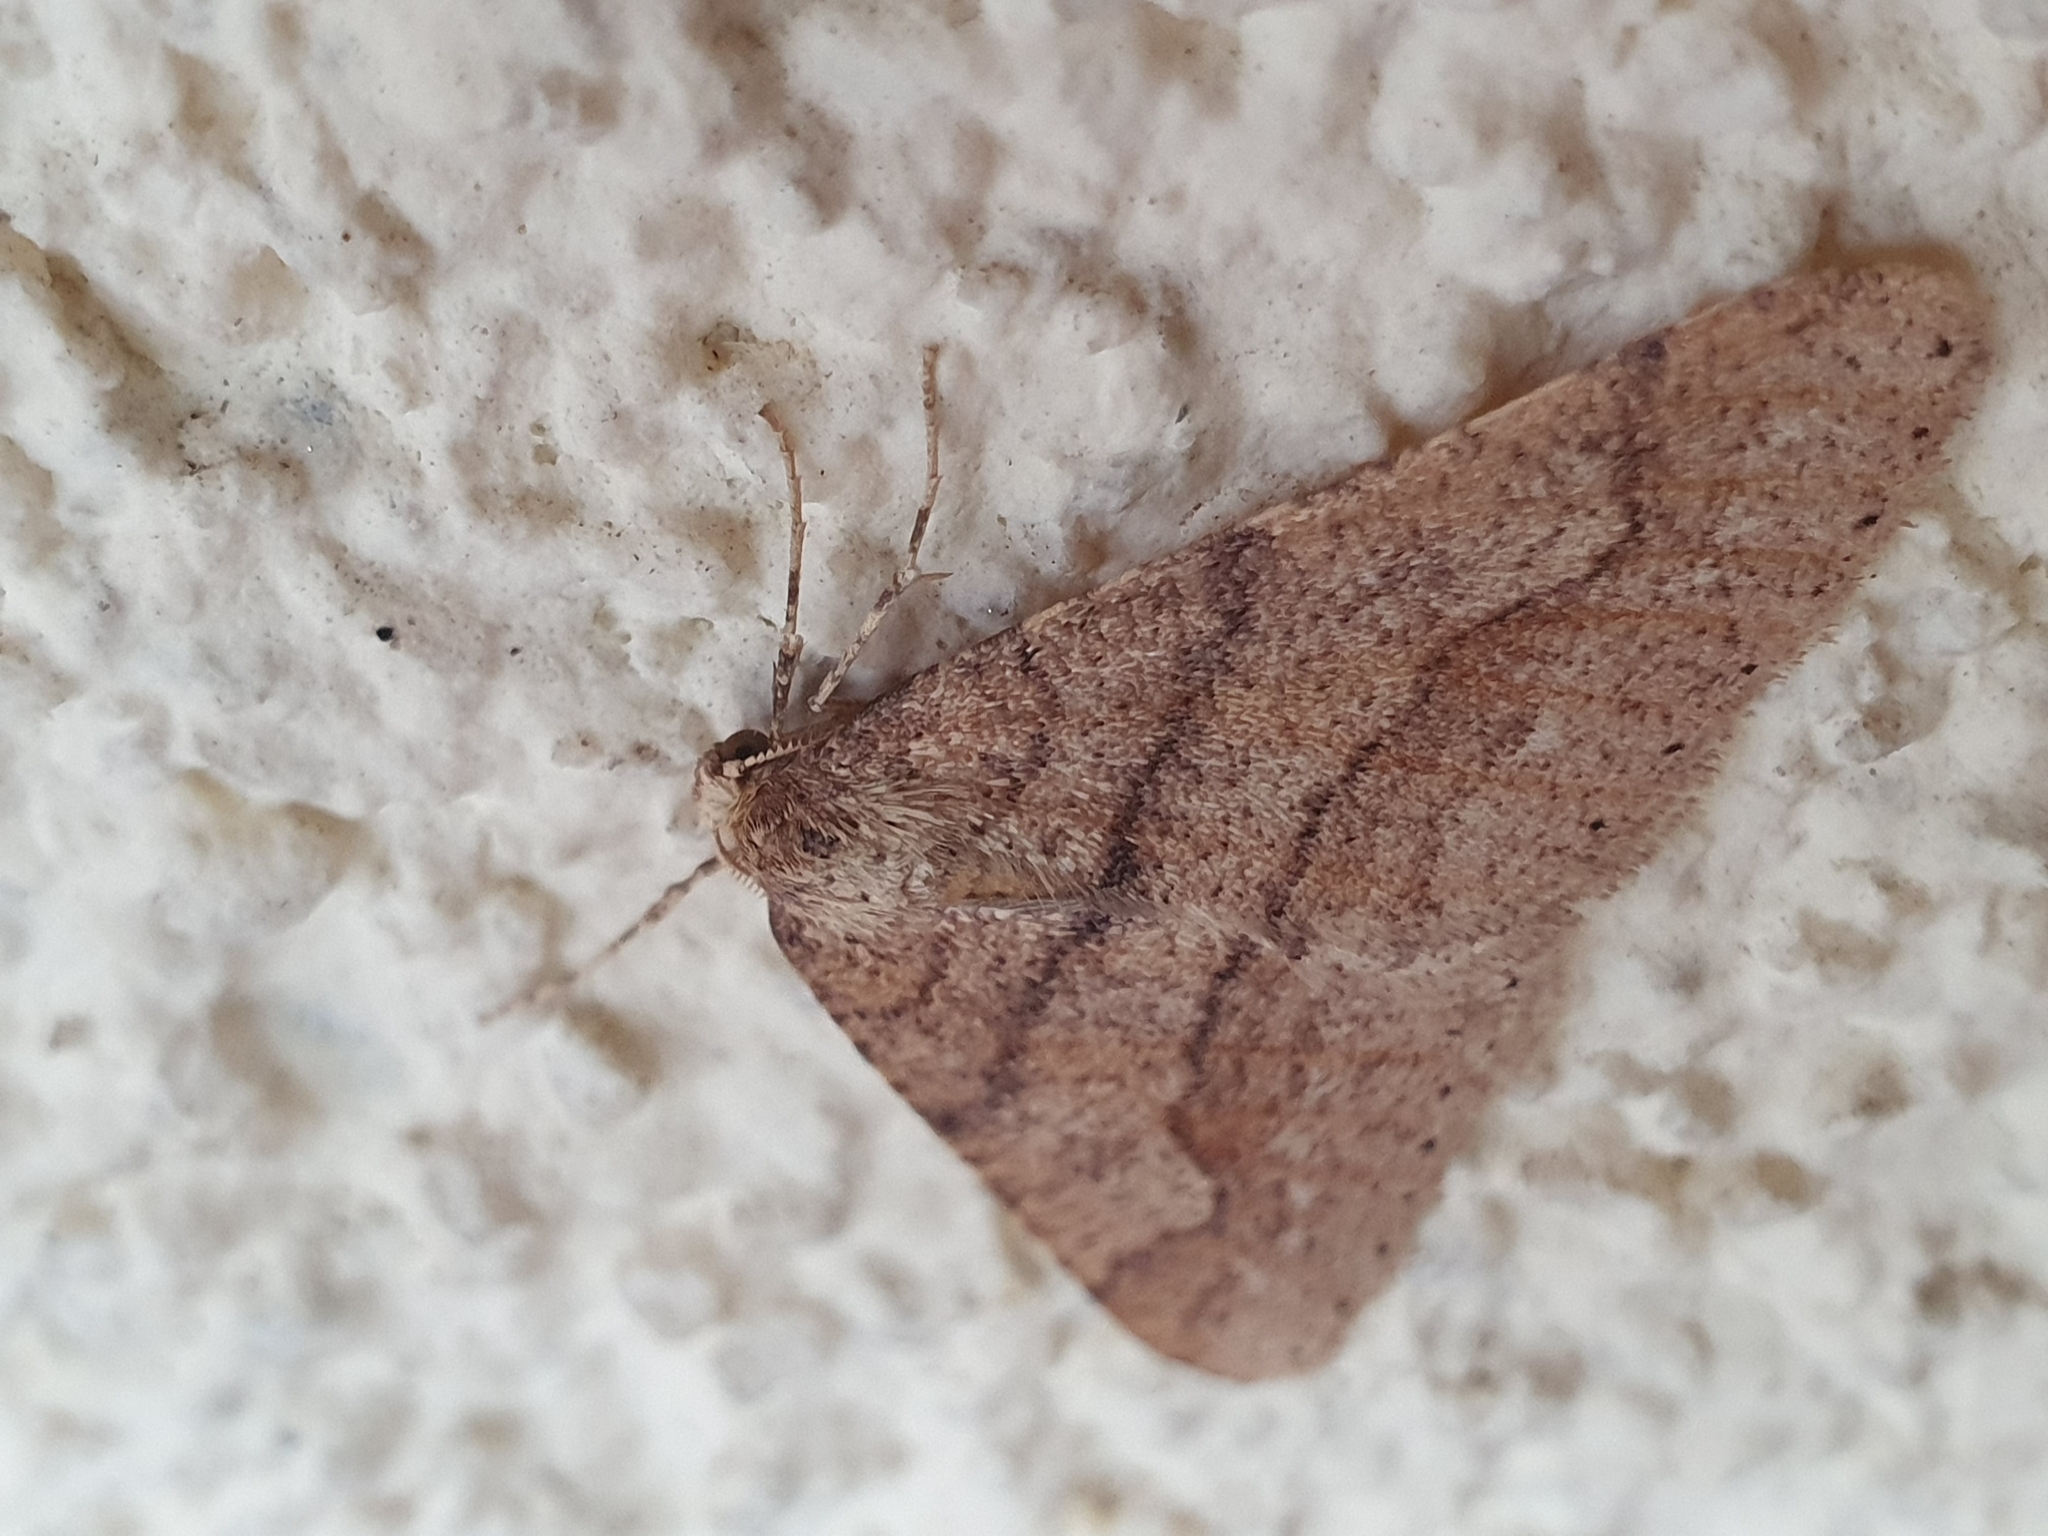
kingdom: Animalia
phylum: Arthropoda
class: Insecta
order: Lepidoptera
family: Geometridae
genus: Agriopis
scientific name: Agriopis marginaria
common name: Dotted border
